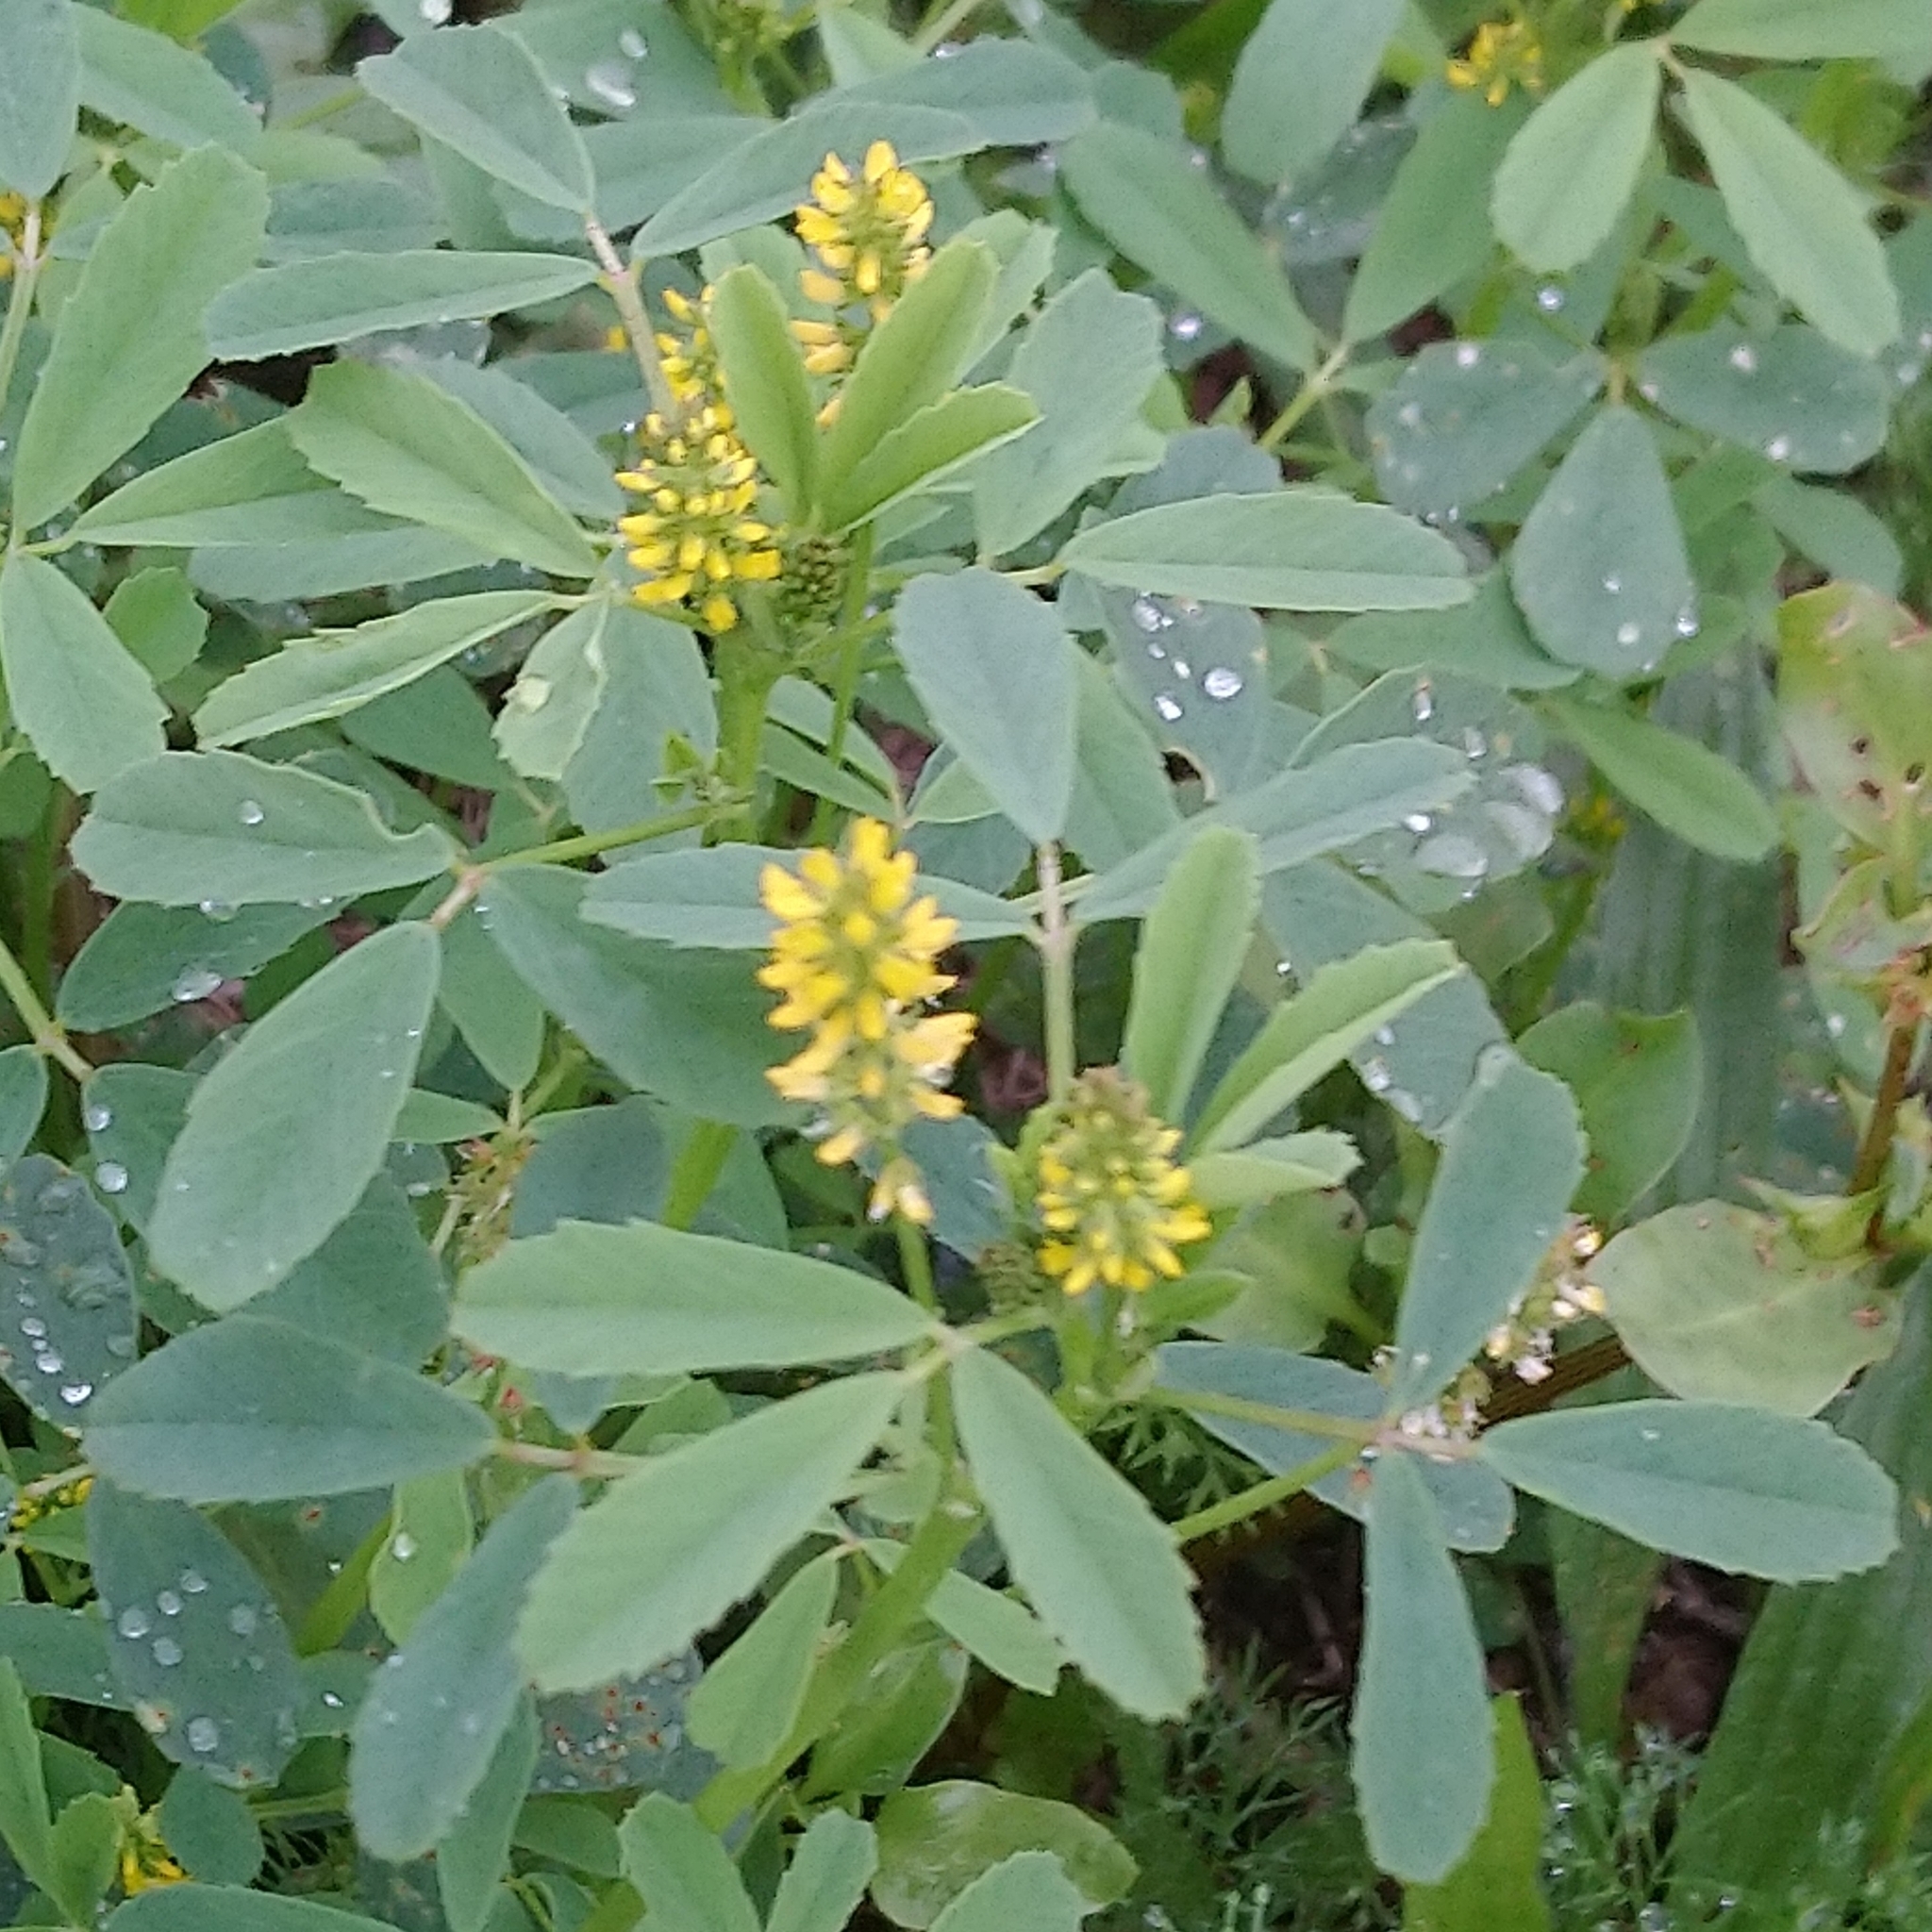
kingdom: Plantae
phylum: Tracheophyta
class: Magnoliopsida
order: Fabales
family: Fabaceae
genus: Melilotus
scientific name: Melilotus indicus
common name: Small melilot
